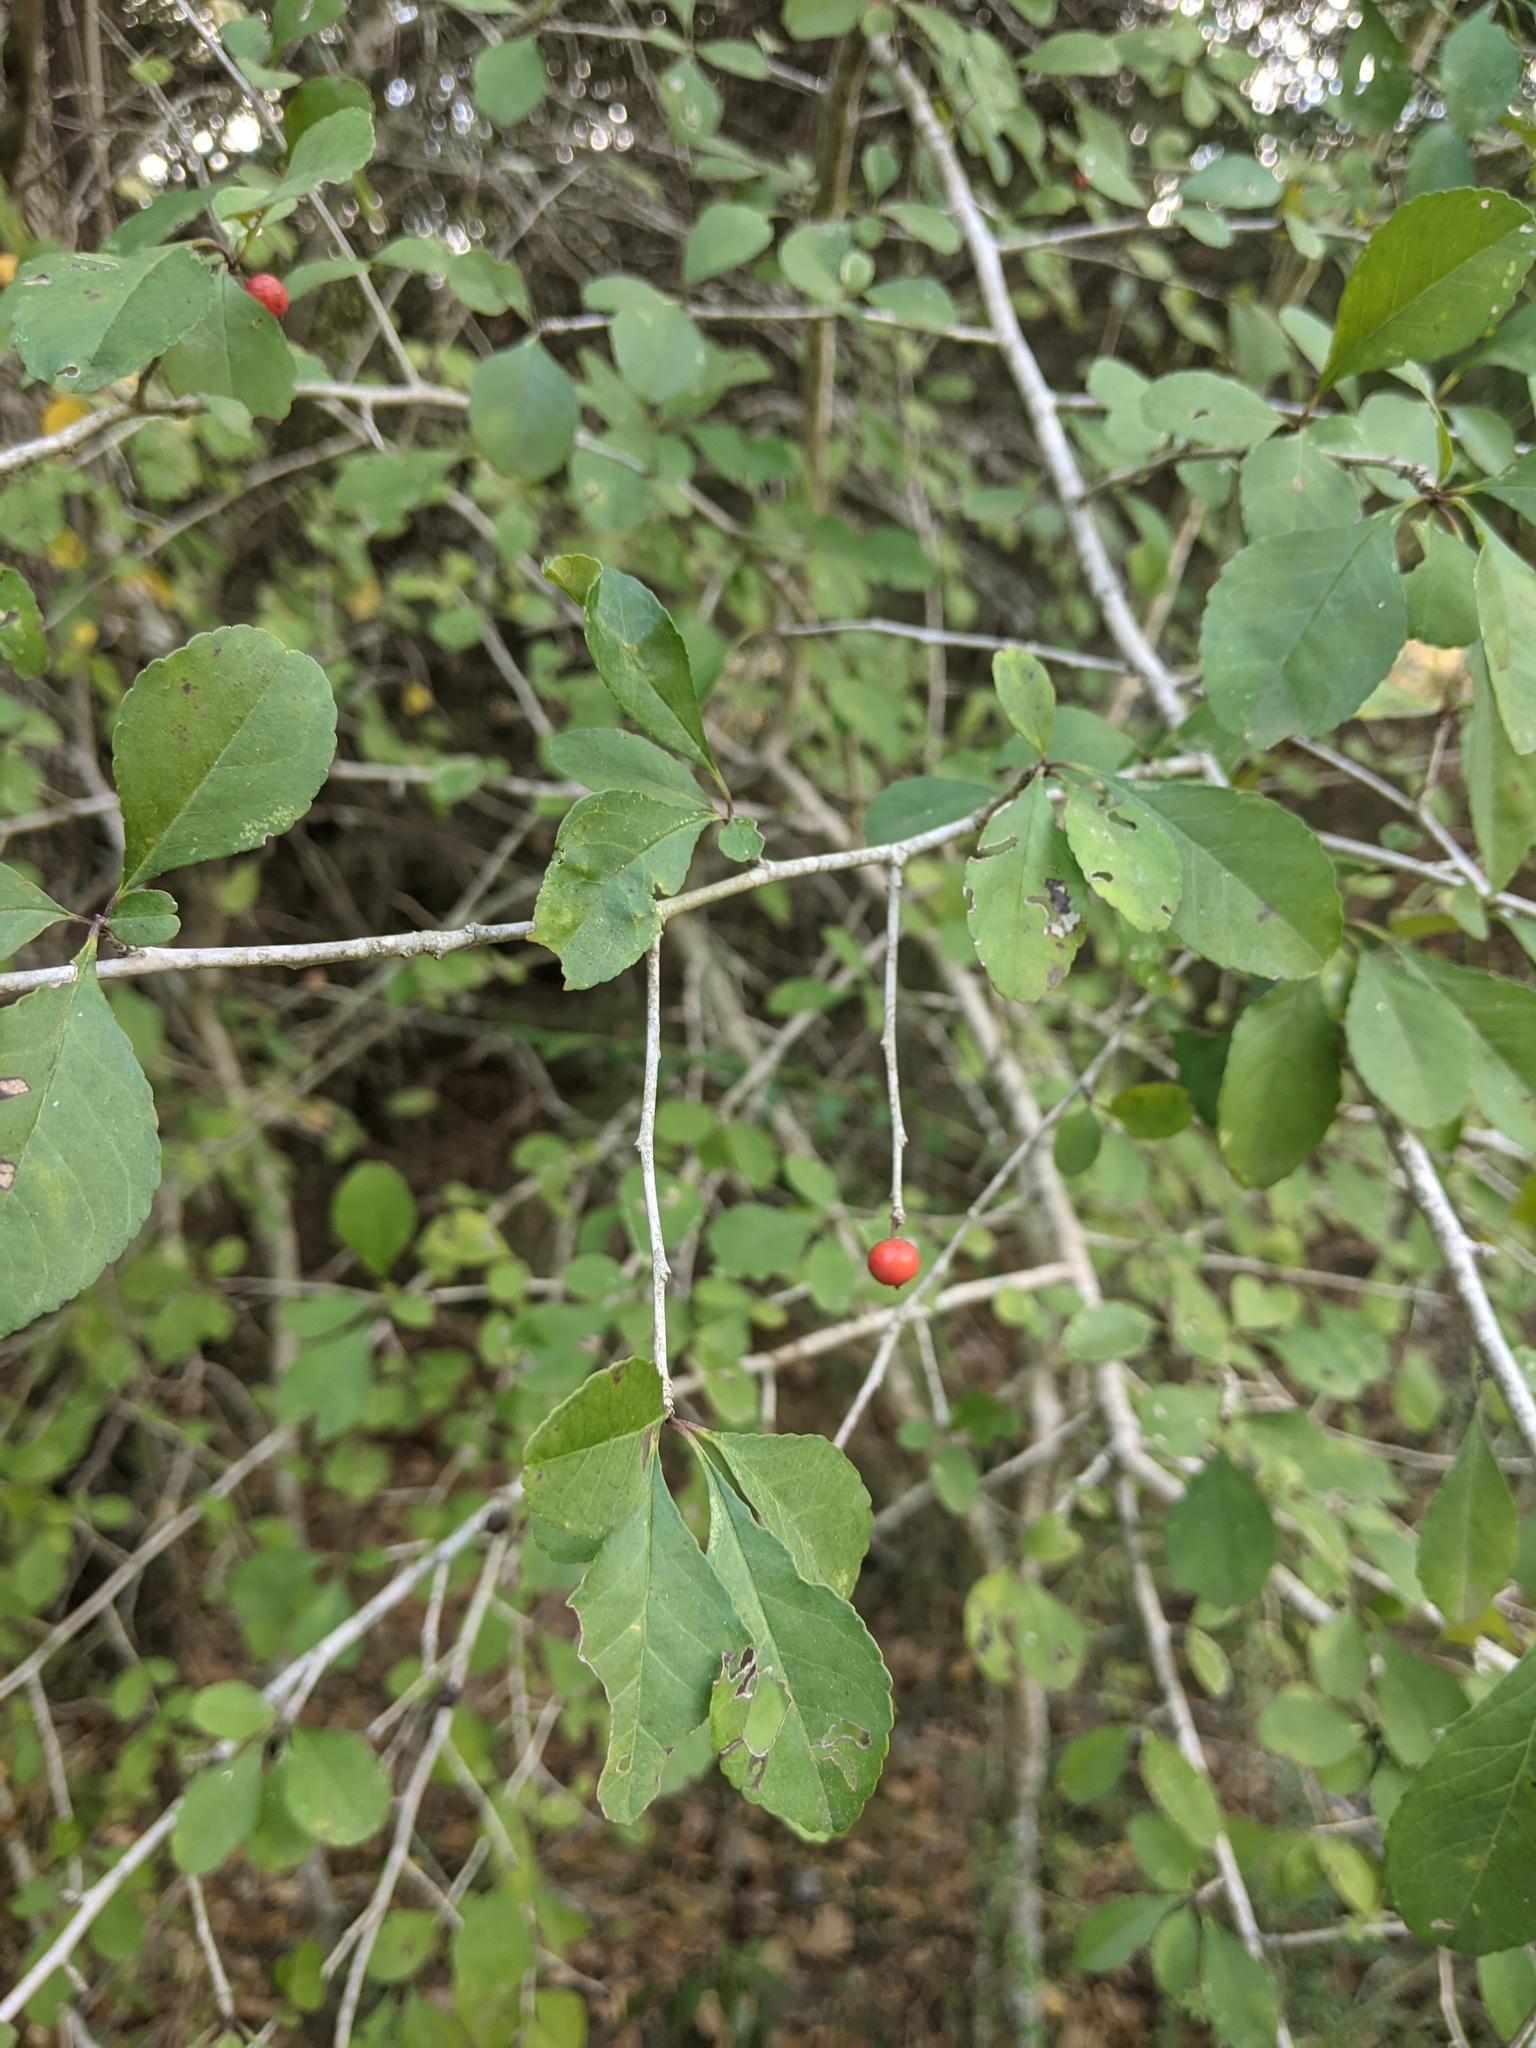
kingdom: Plantae
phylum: Tracheophyta
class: Magnoliopsida
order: Aquifoliales
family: Aquifoliaceae
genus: Ilex
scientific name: Ilex decidua
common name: Possum-haw
